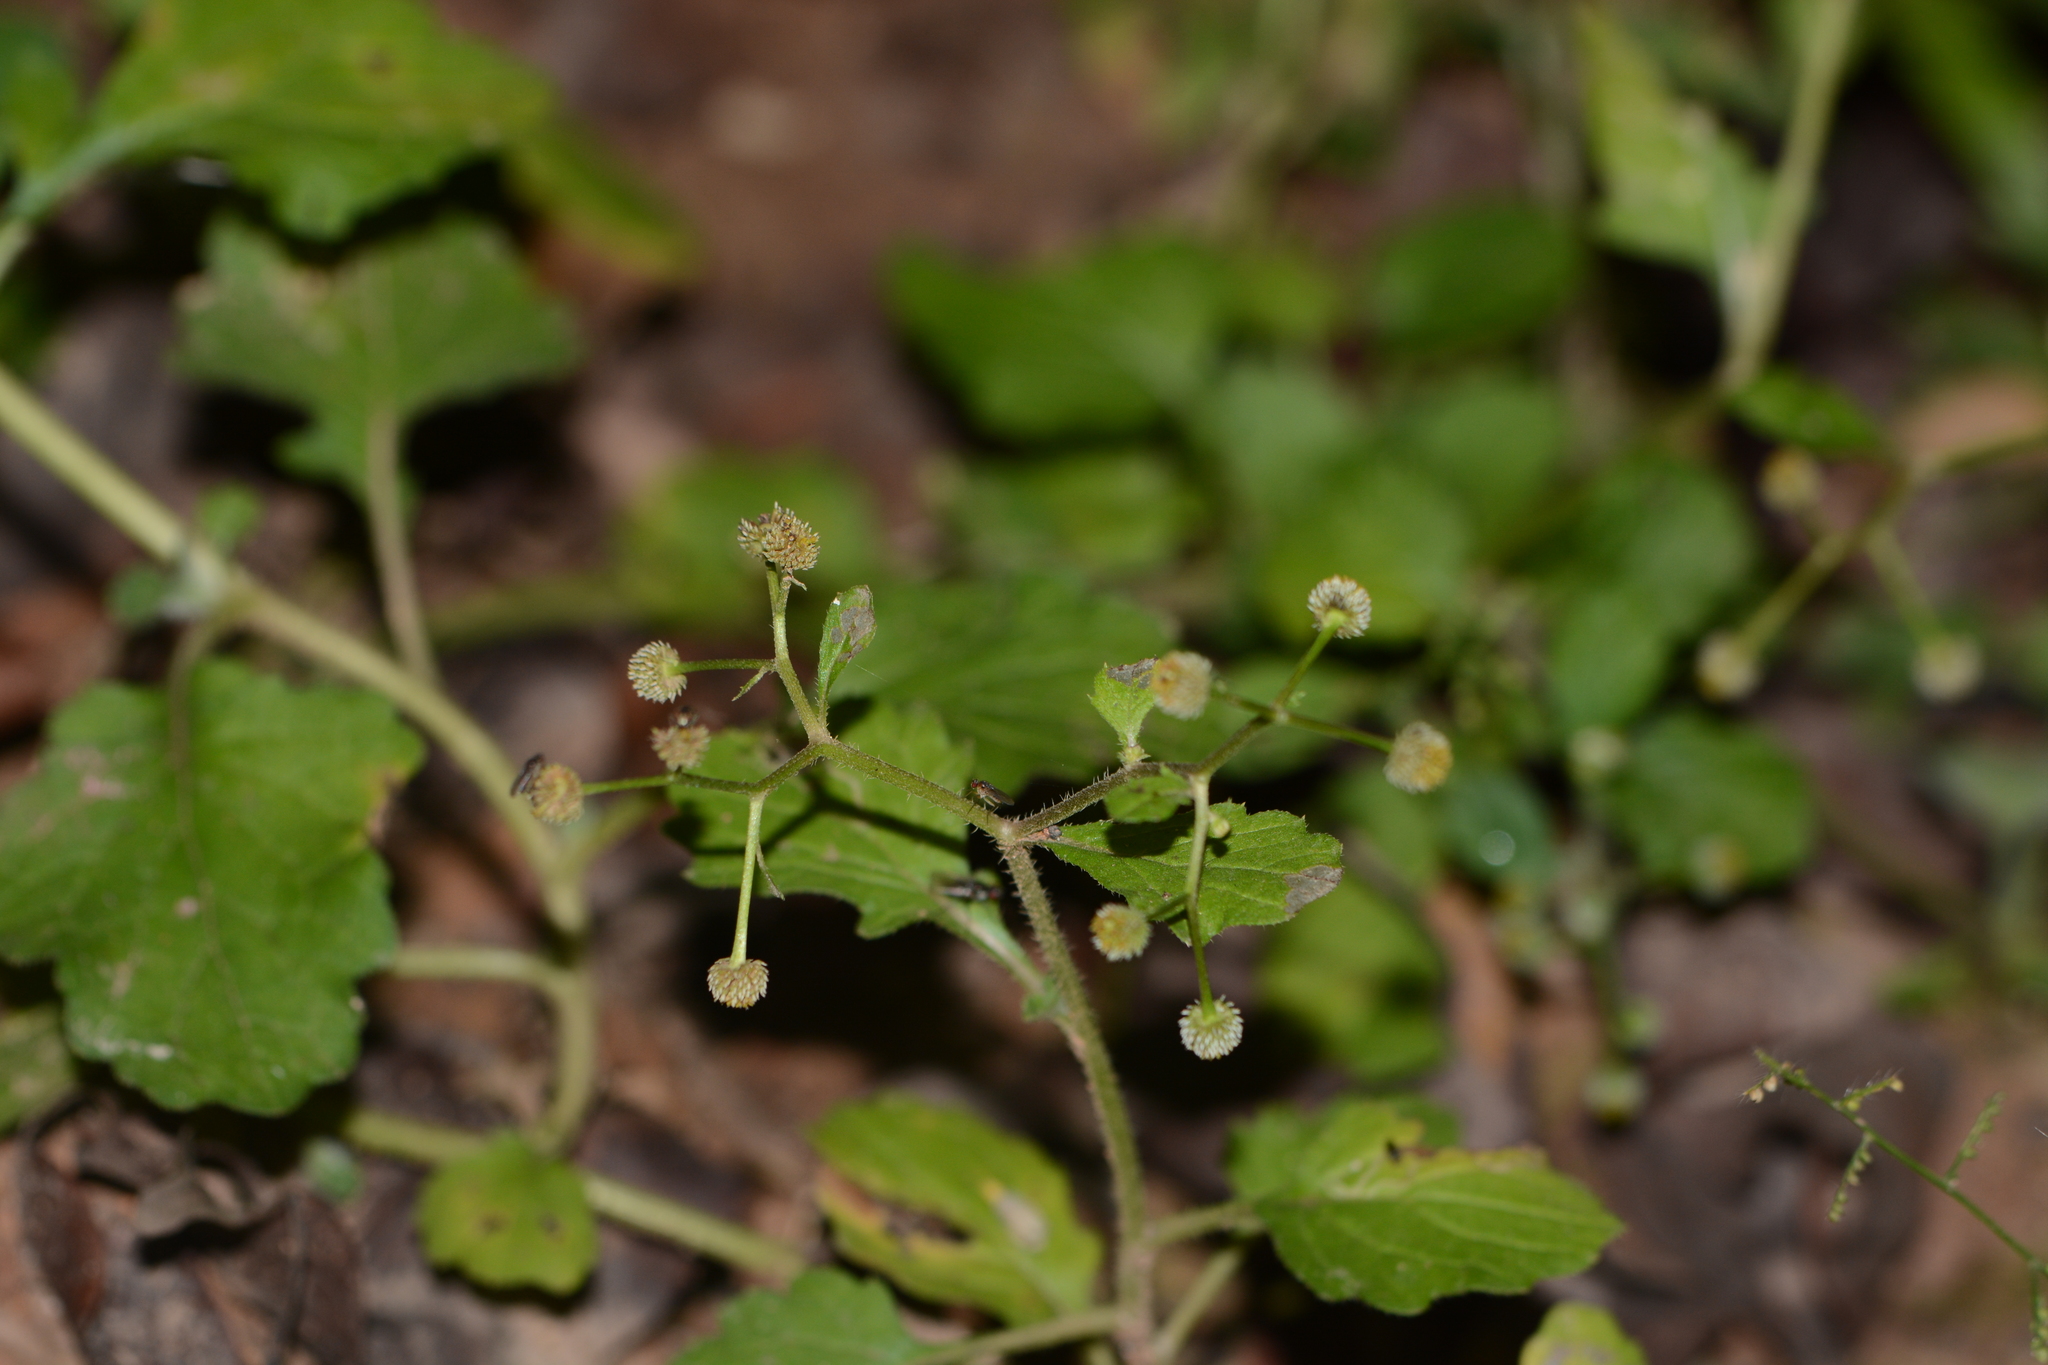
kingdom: Plantae
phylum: Tracheophyta
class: Magnoliopsida
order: Asterales
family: Asteraceae
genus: Dichrocephala
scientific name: Dichrocephala integrifolia
